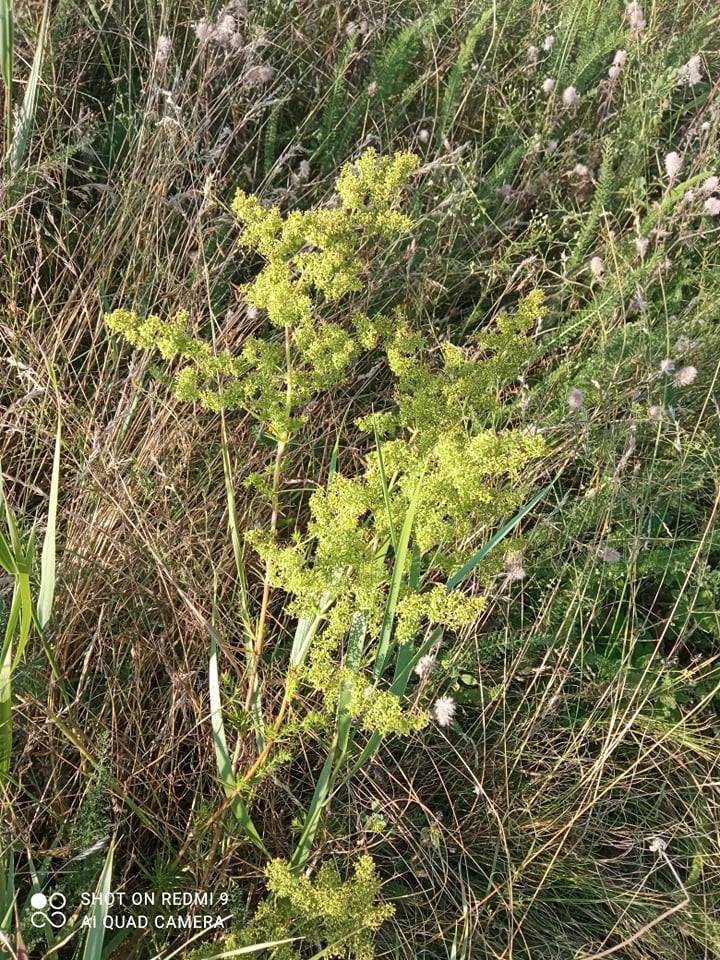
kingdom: Plantae
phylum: Tracheophyta
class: Magnoliopsida
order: Gentianales
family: Rubiaceae
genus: Galium
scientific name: Galium verum
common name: Lady's bedstraw
